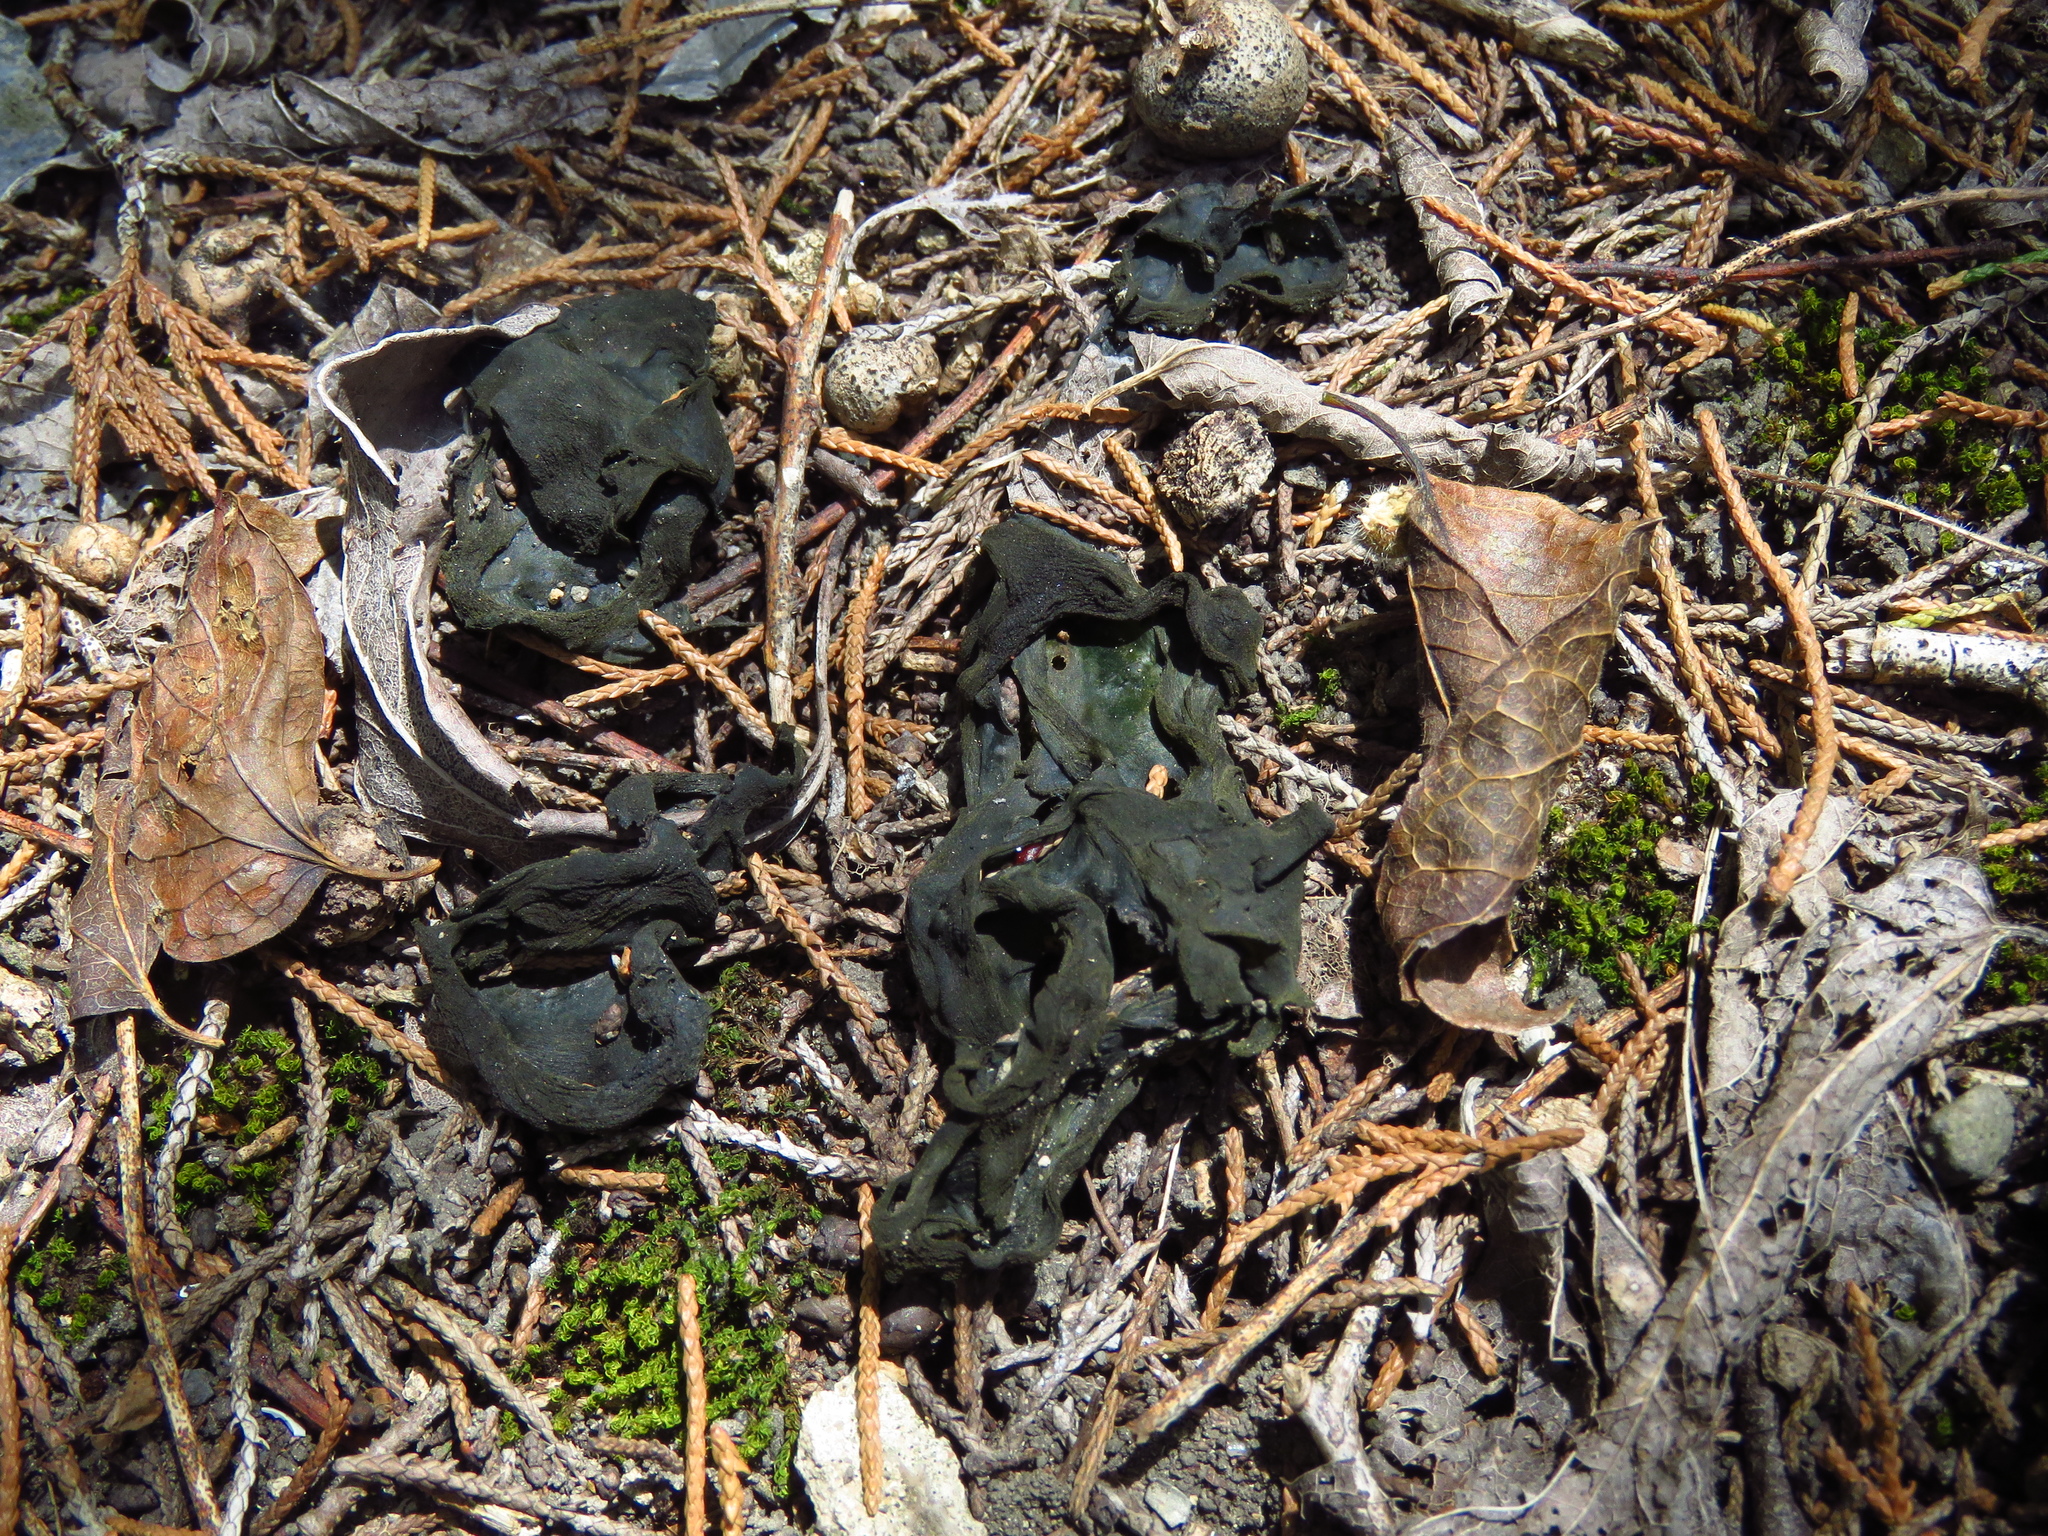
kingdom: Bacteria
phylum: Cyanobacteria
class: Cyanobacteriia
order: Cyanobacteriales
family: Nostocaceae
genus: Nostoc
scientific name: Nostoc commune
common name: Star jelly
